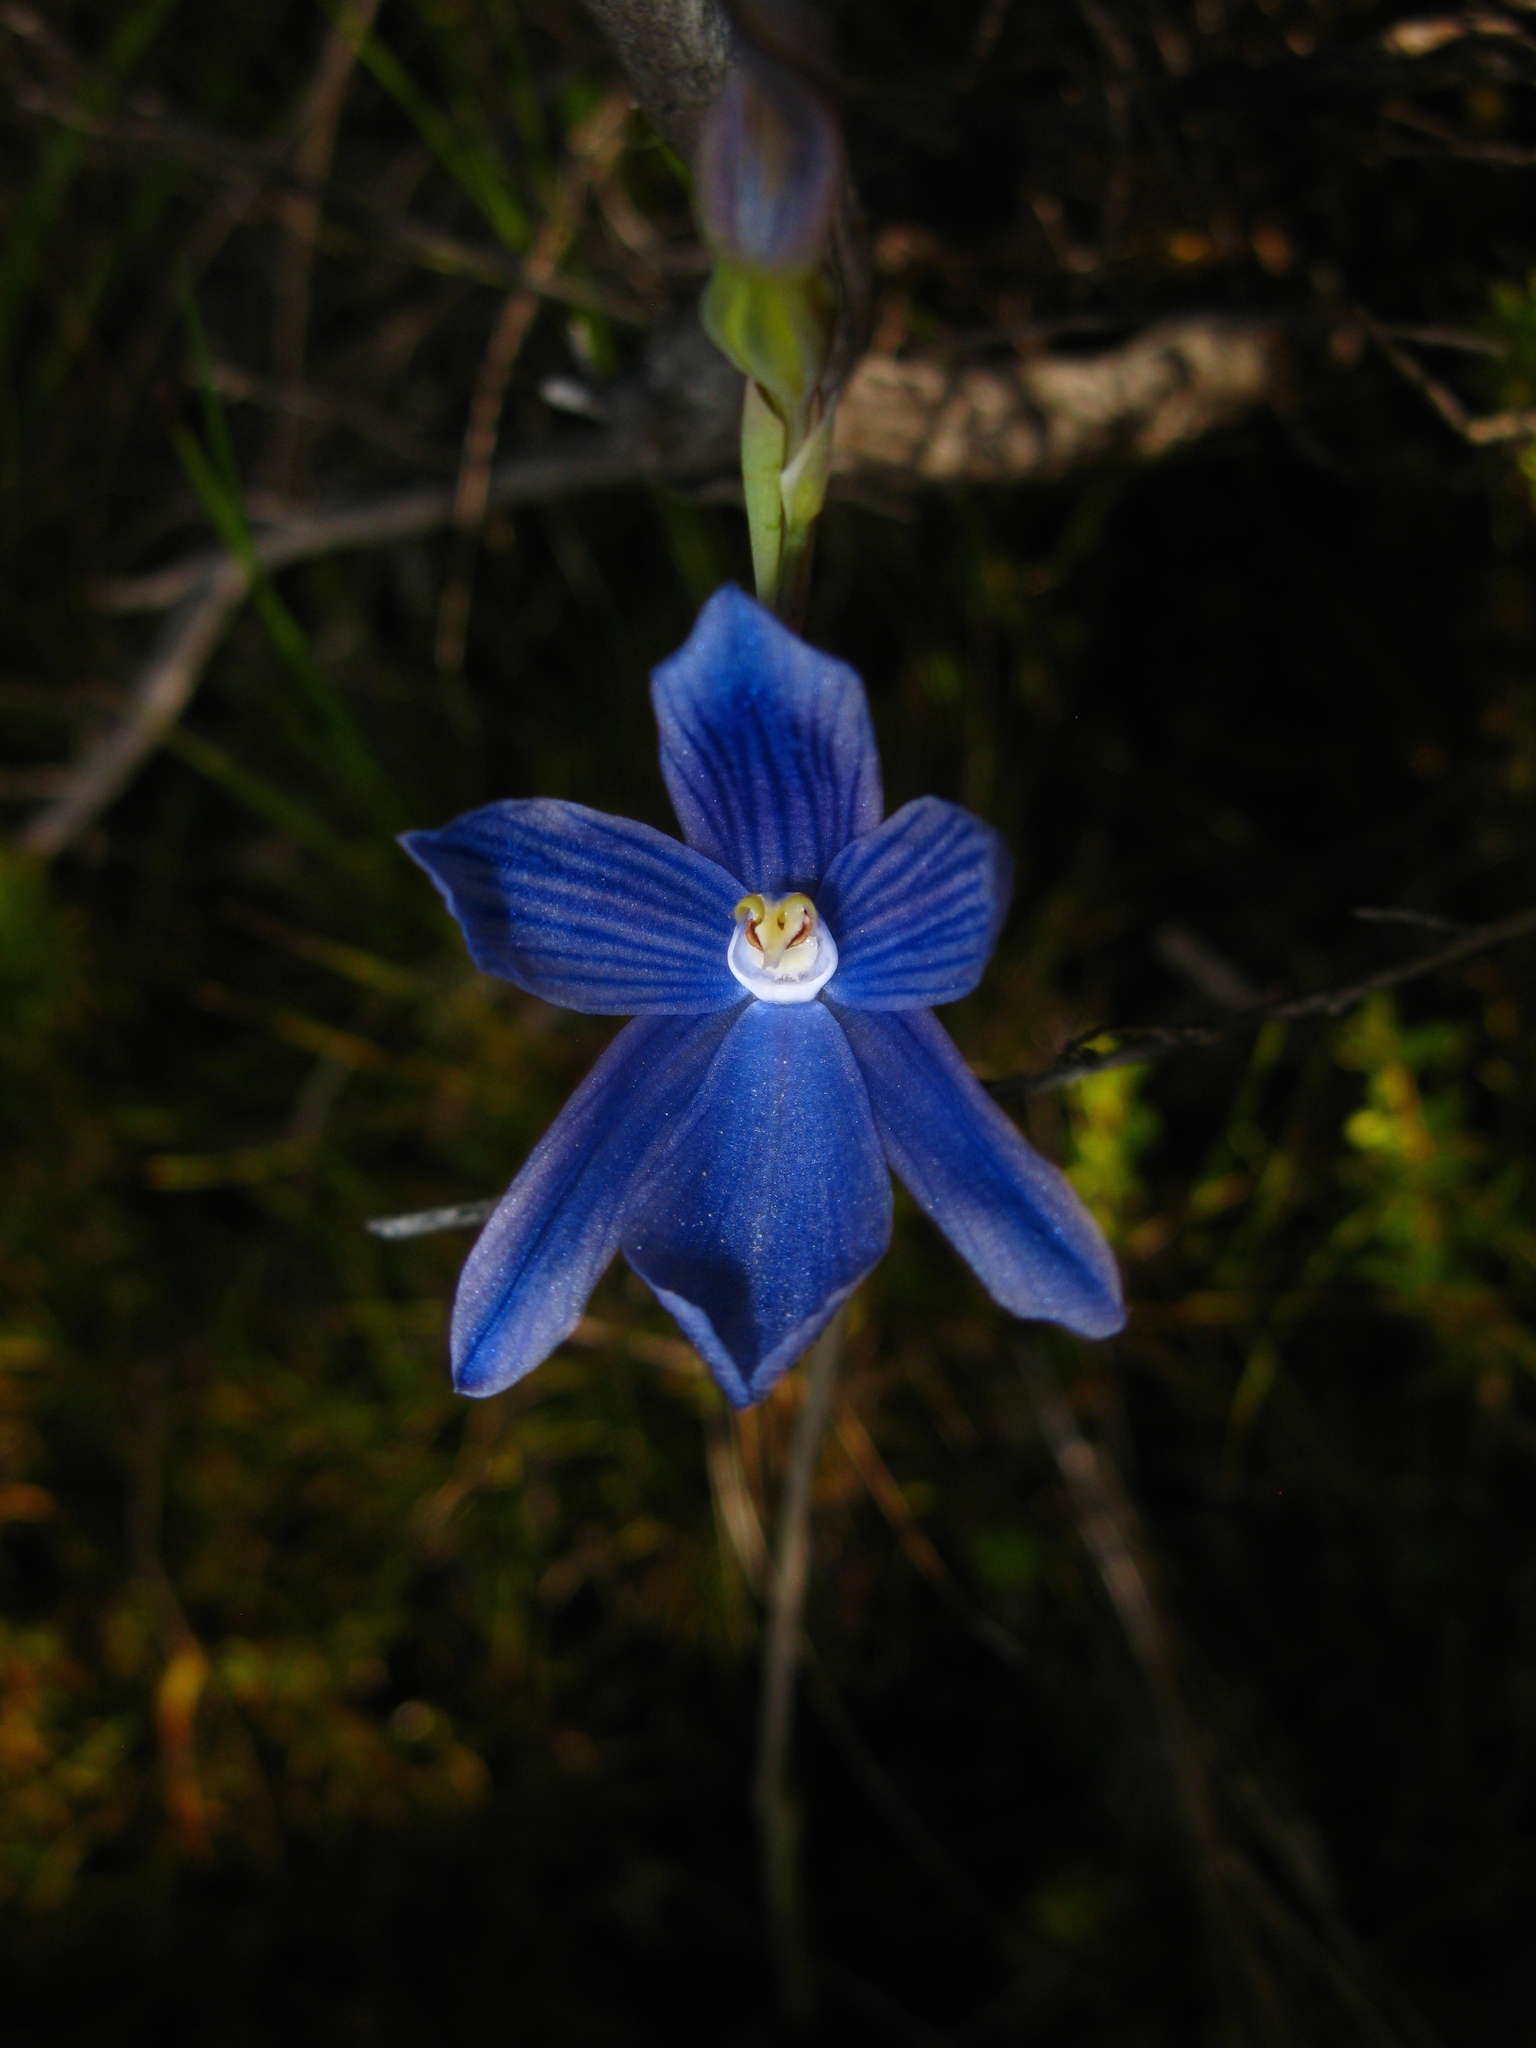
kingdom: Plantae
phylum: Tracheophyta
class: Liliopsida
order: Asparagales
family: Orchidaceae
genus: Thelymitra
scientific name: Thelymitra cyanea
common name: Blue sun-orchid
